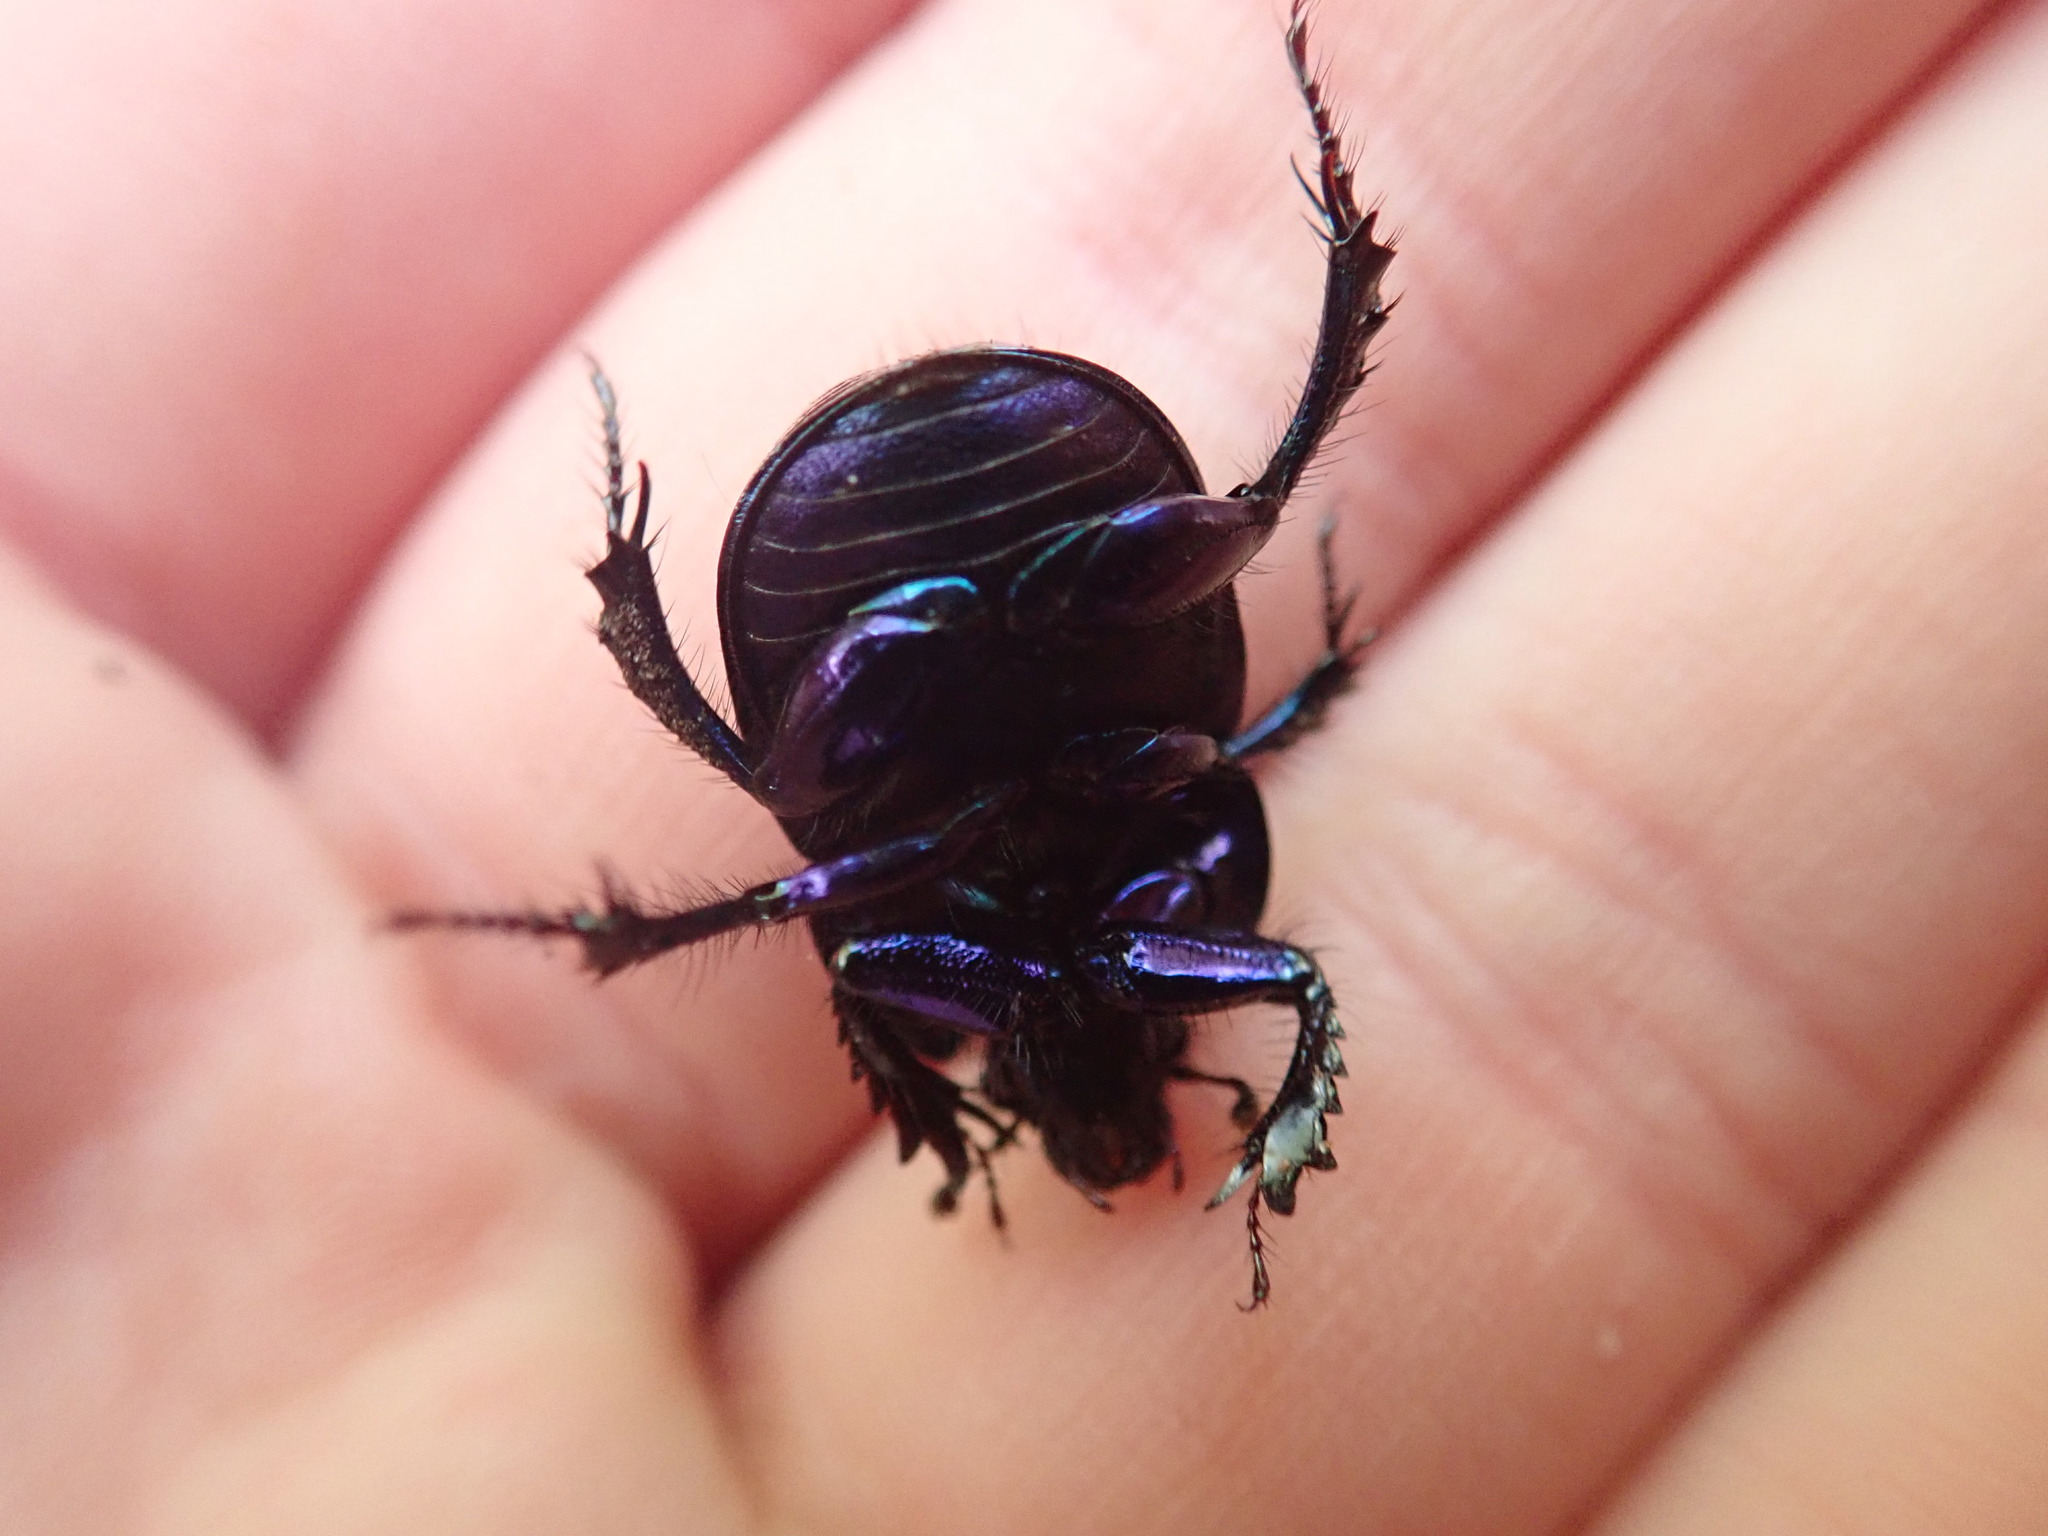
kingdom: Animalia
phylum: Arthropoda
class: Insecta
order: Coleoptera
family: Geotrupidae
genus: Anoplotrupes
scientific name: Anoplotrupes stercorosus
